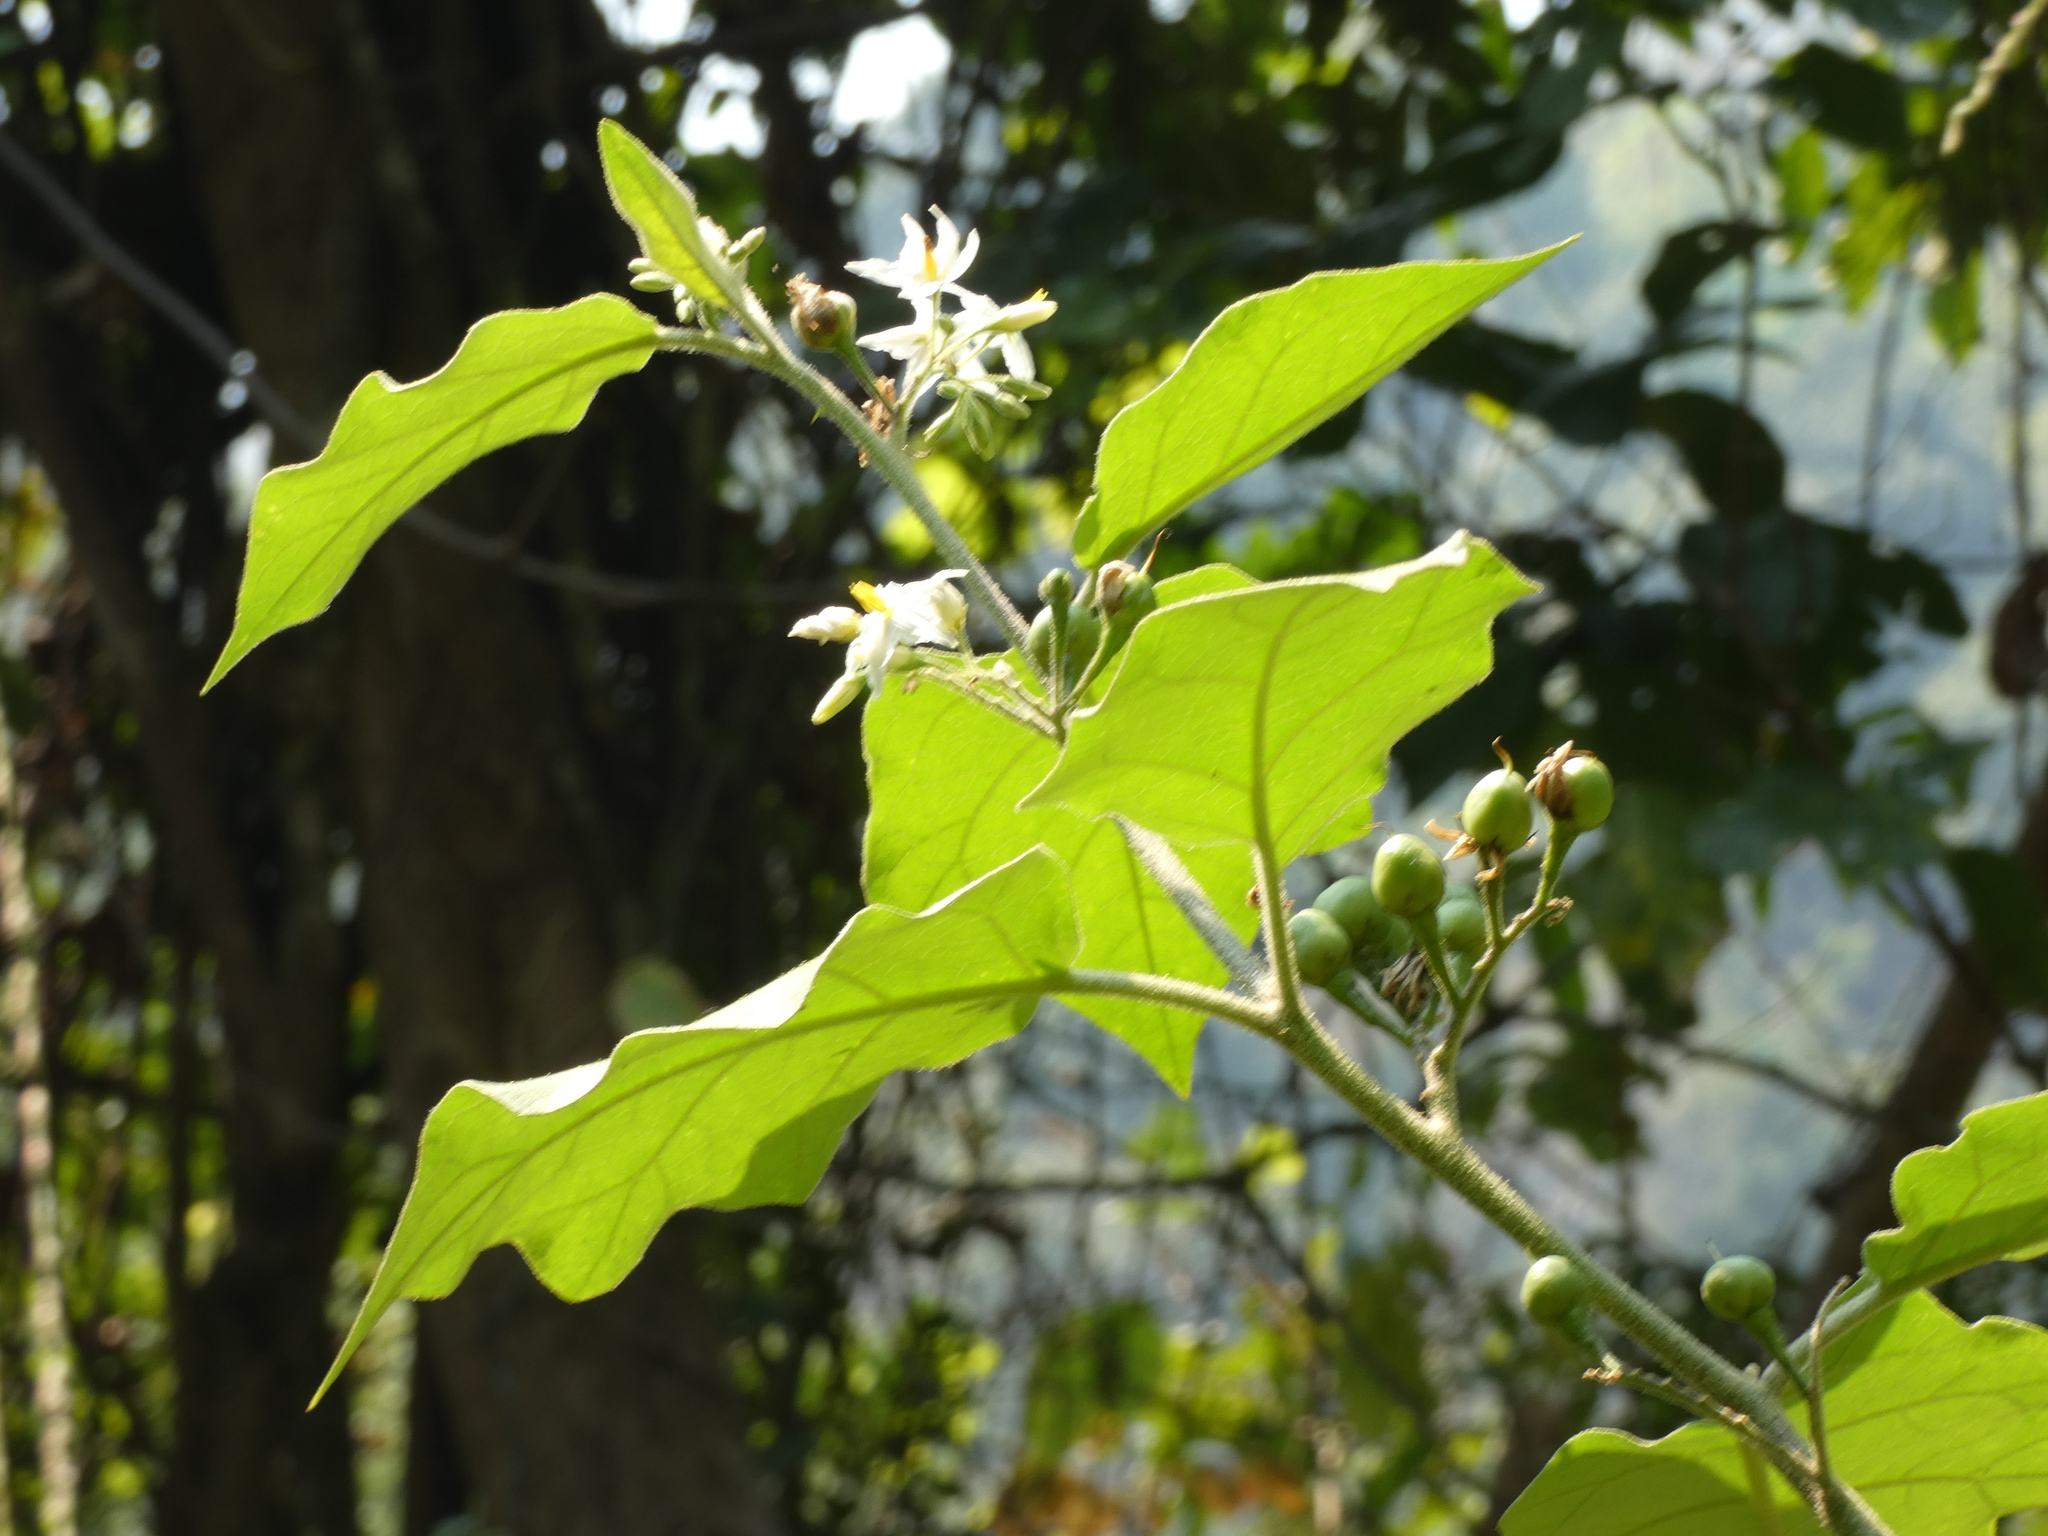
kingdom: Plantae
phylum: Tracheophyta
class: Magnoliopsida
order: Solanales
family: Solanaceae
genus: Solanum
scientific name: Solanum torvum
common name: Turkey berry
